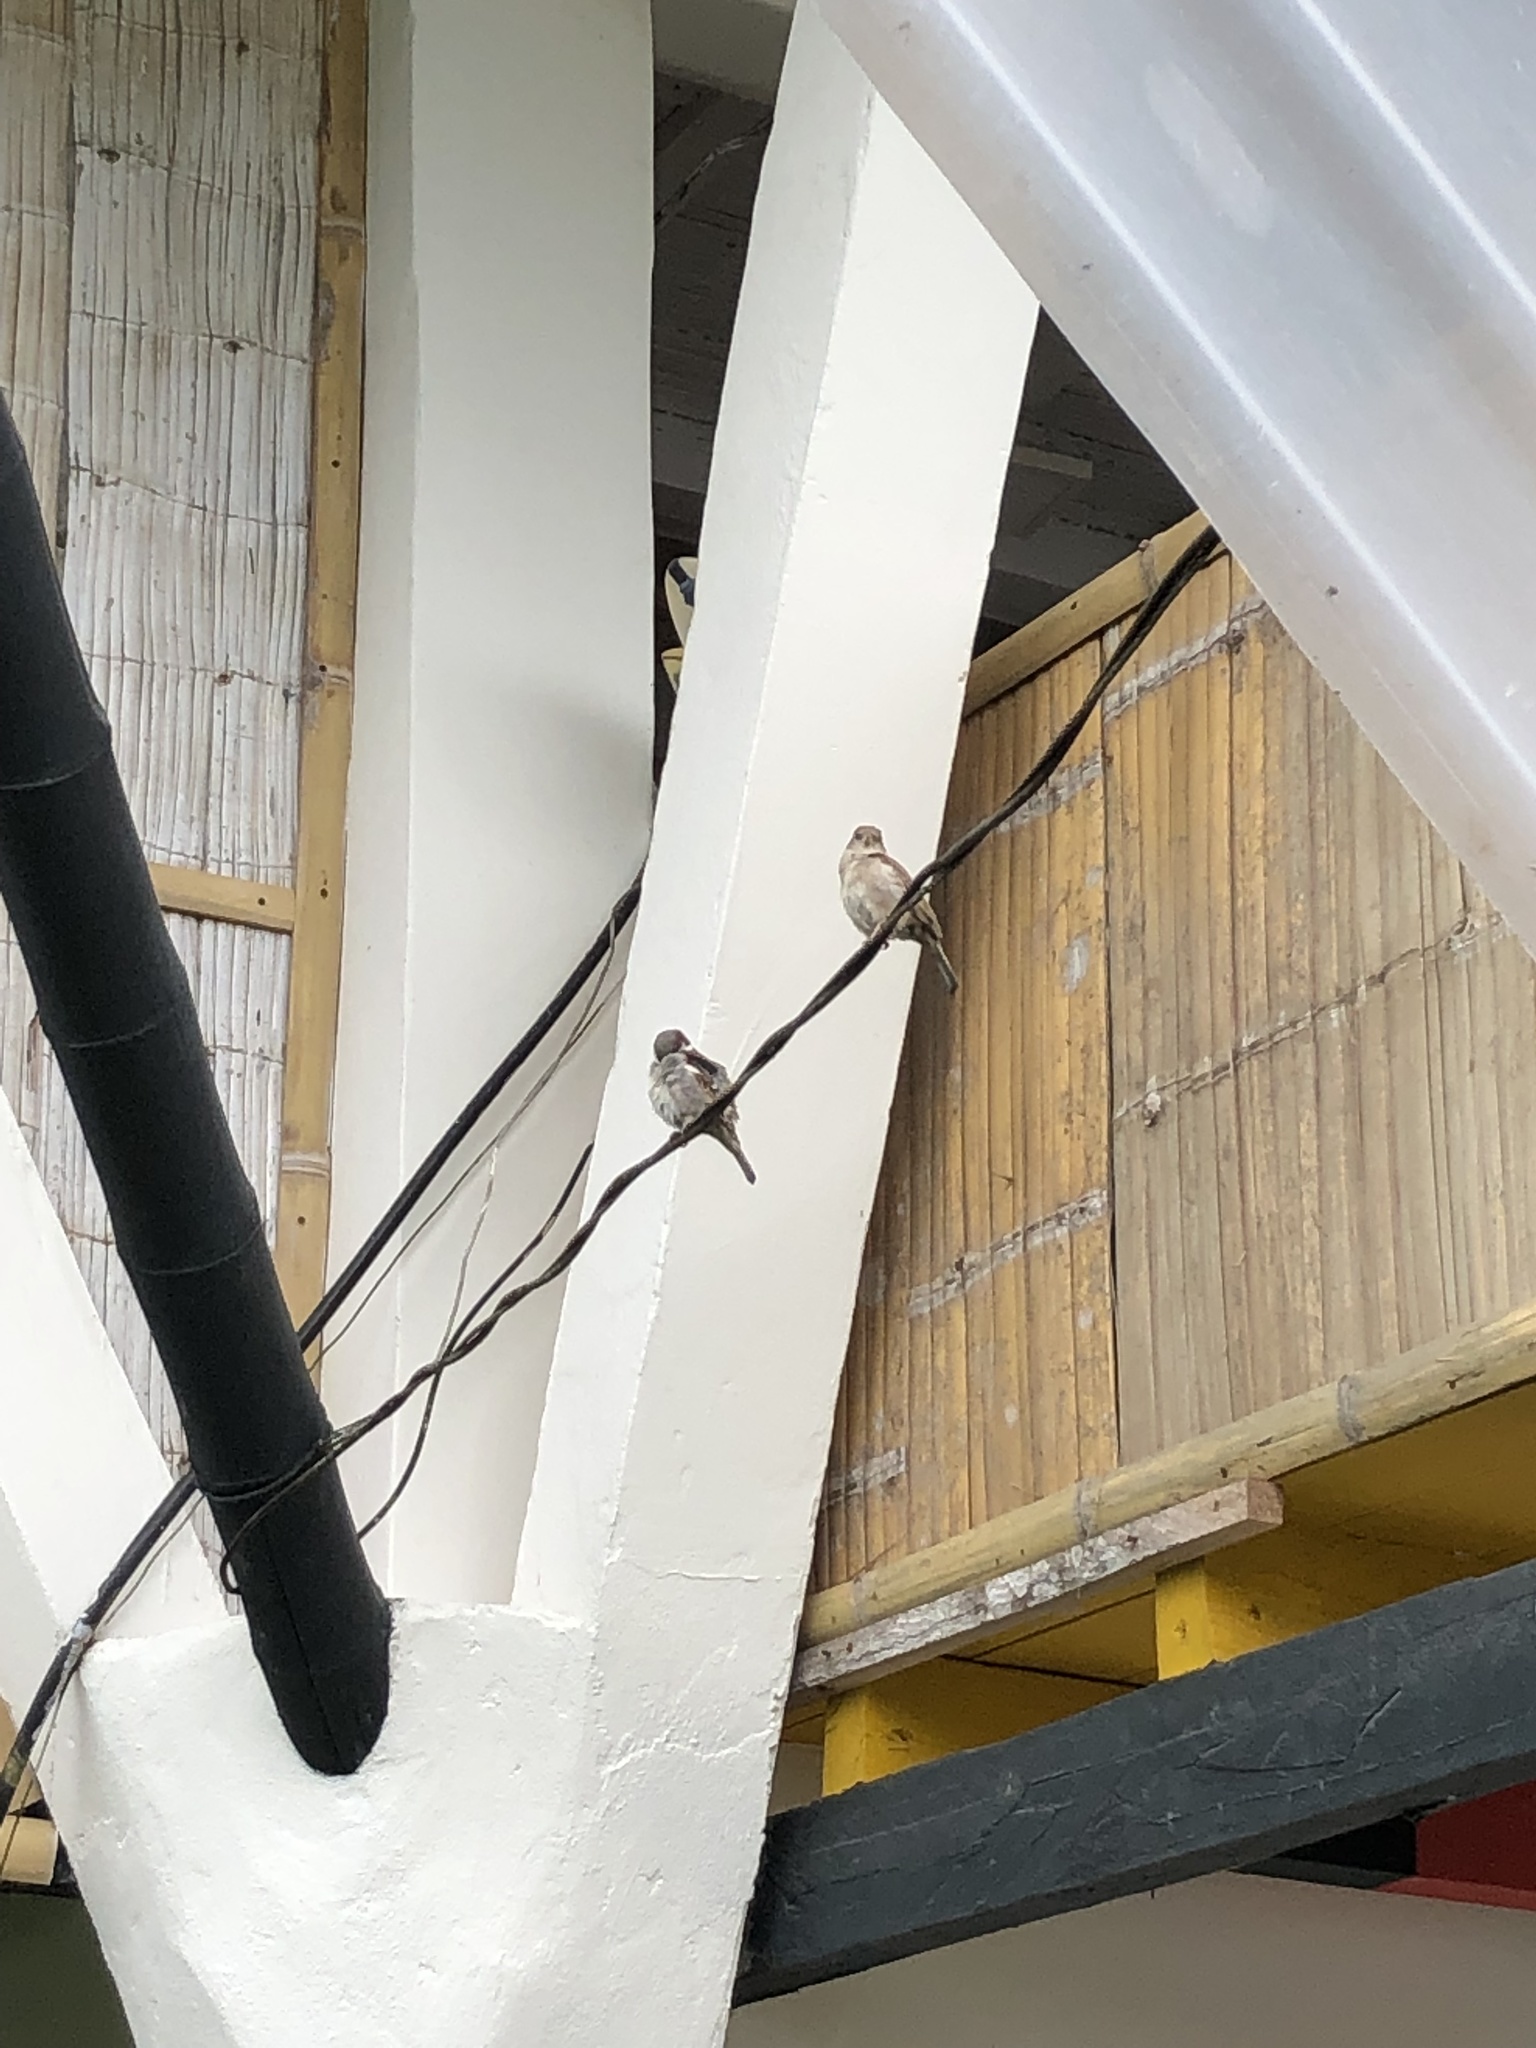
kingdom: Animalia
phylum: Chordata
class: Aves
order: Passeriformes
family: Passeridae
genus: Passer
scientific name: Passer domesticus
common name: House sparrow
